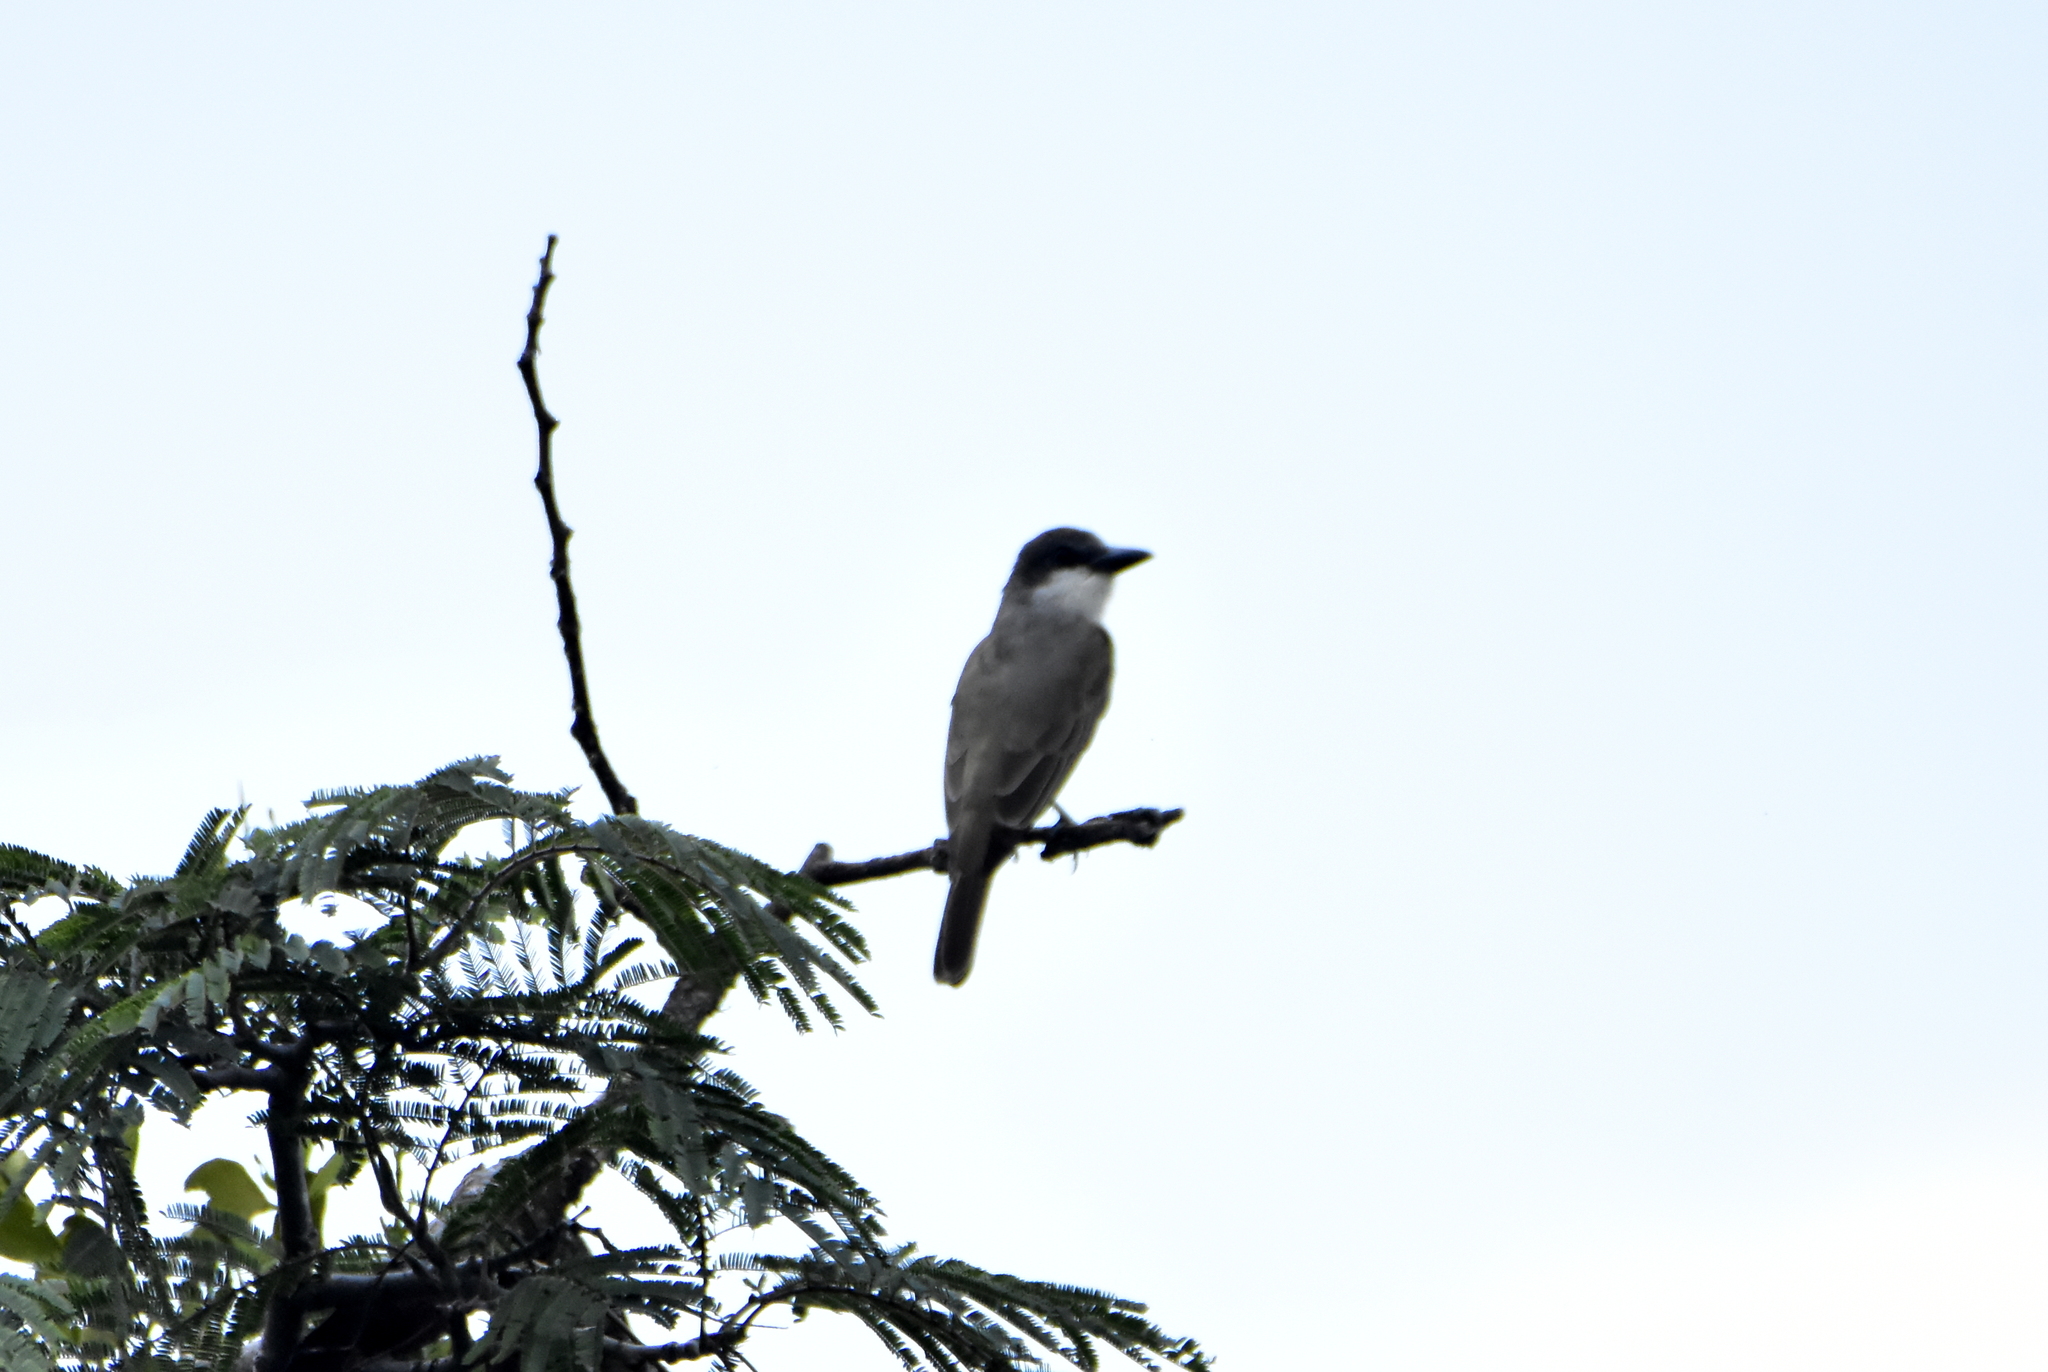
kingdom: Animalia
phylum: Chordata
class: Aves
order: Passeriformes
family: Tyrannidae
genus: Tyrannus
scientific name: Tyrannus crassirostris
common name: Thick-billed kingbird
